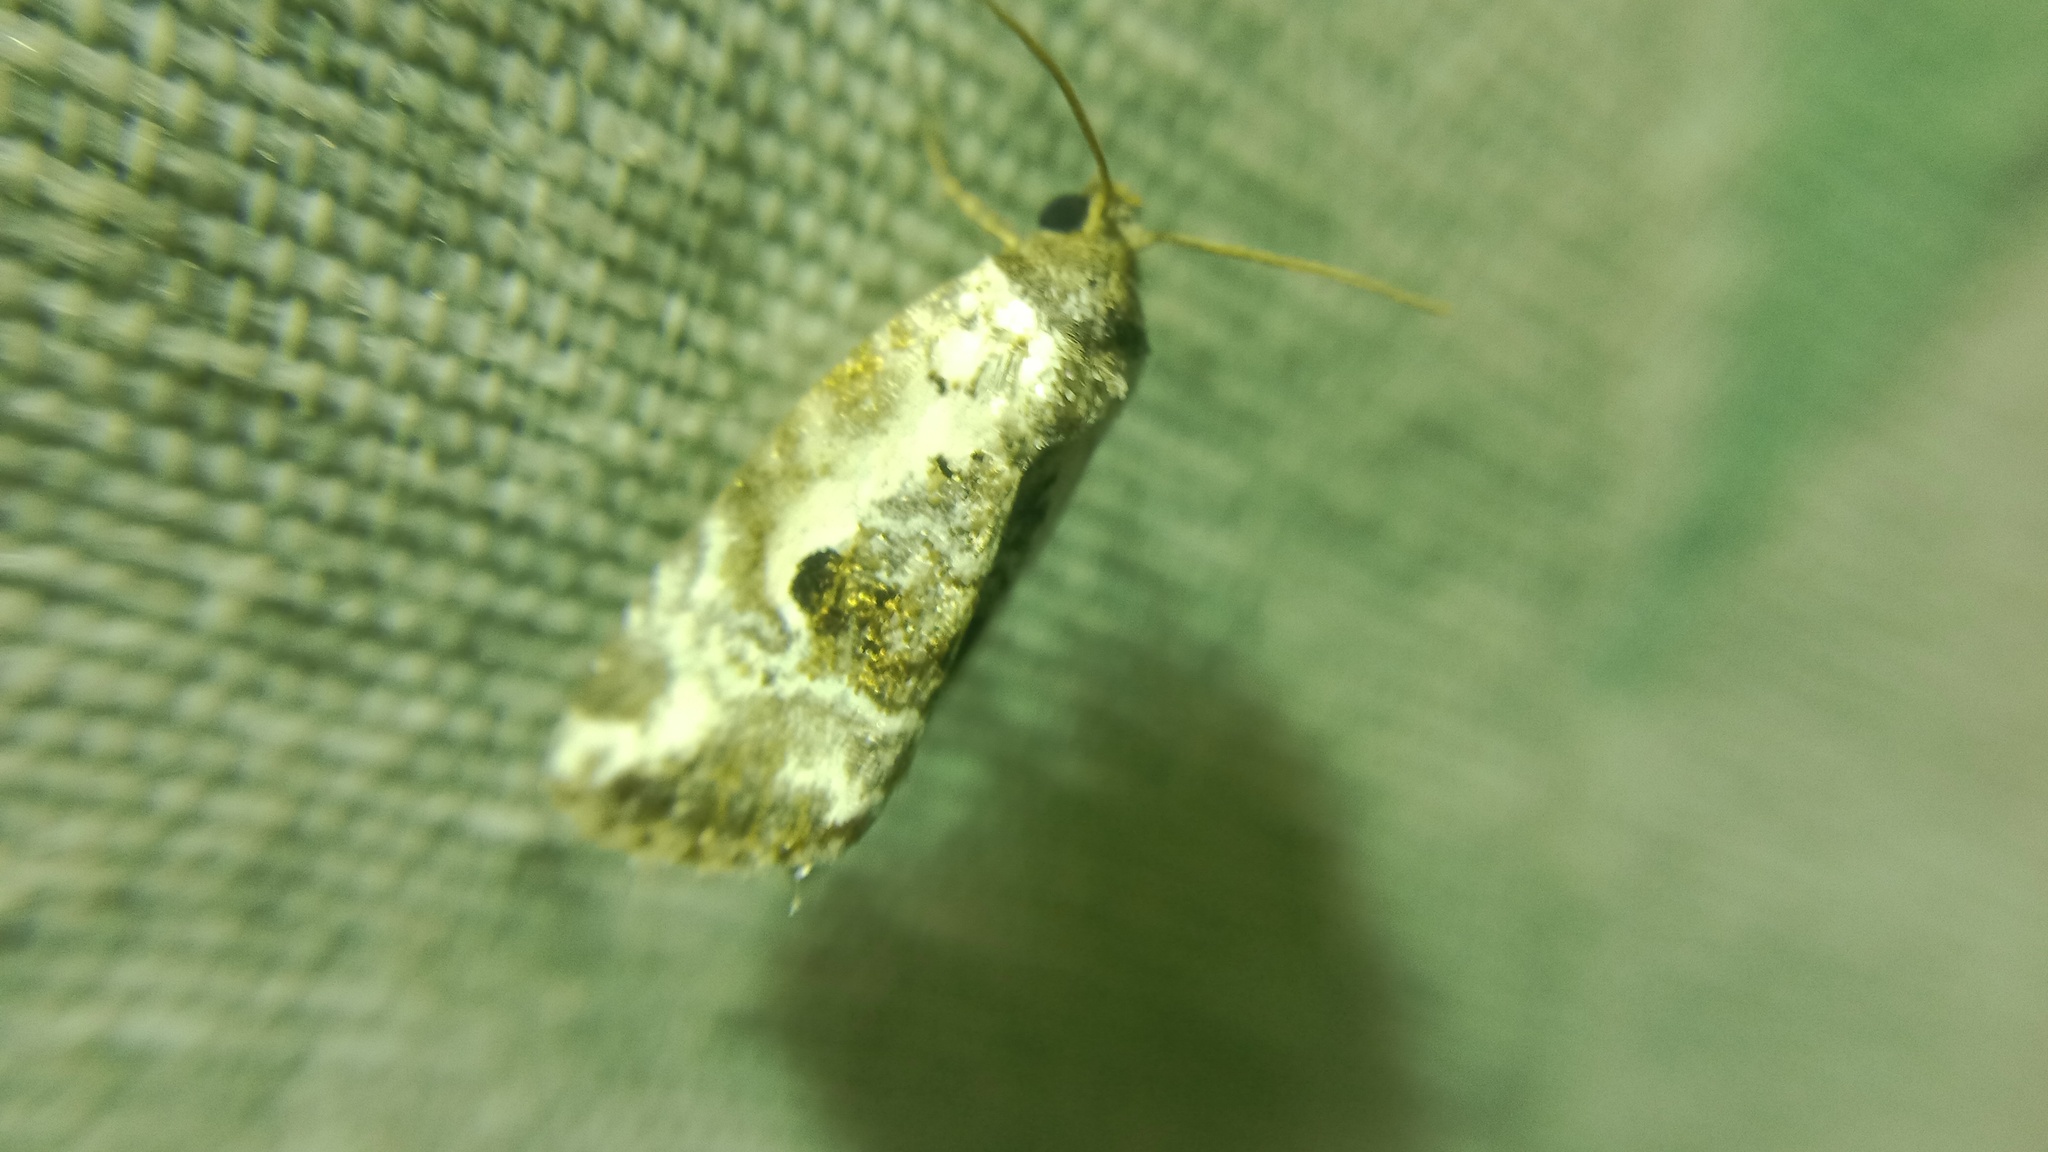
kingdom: Animalia
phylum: Arthropoda
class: Insecta
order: Lepidoptera
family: Noctuidae
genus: Elaphria
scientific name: Elaphria venustula
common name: Rosy marbled
